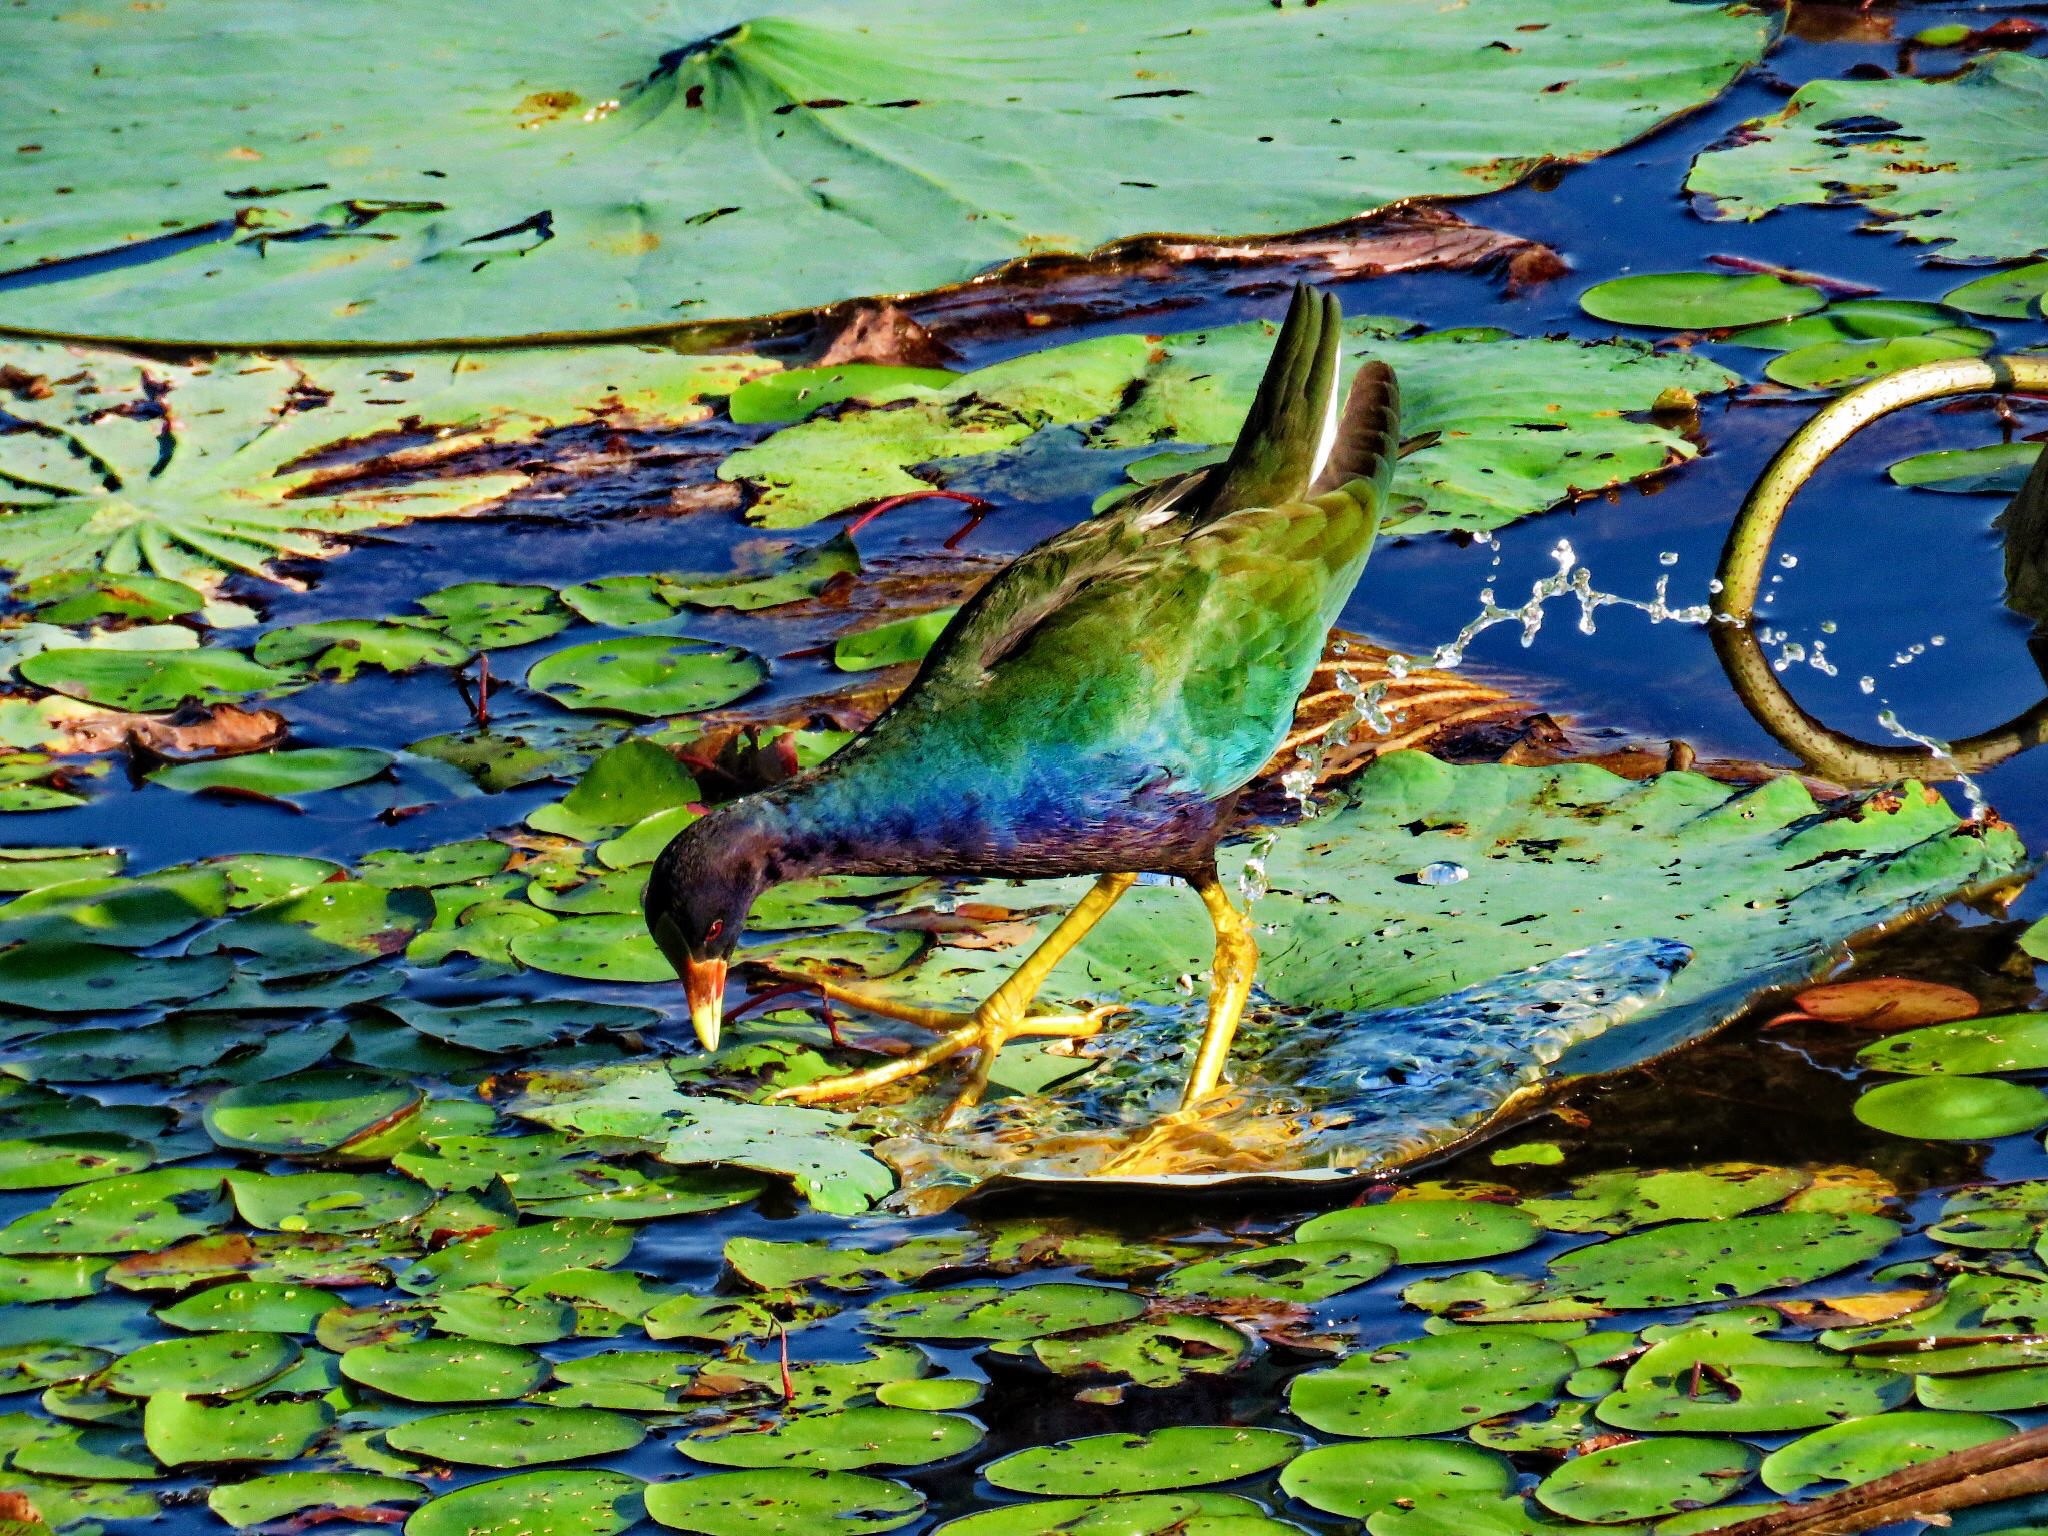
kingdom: Animalia
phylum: Chordata
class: Aves
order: Gruiformes
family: Rallidae
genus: Porphyrio
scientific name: Porphyrio martinica
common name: Purple gallinule
